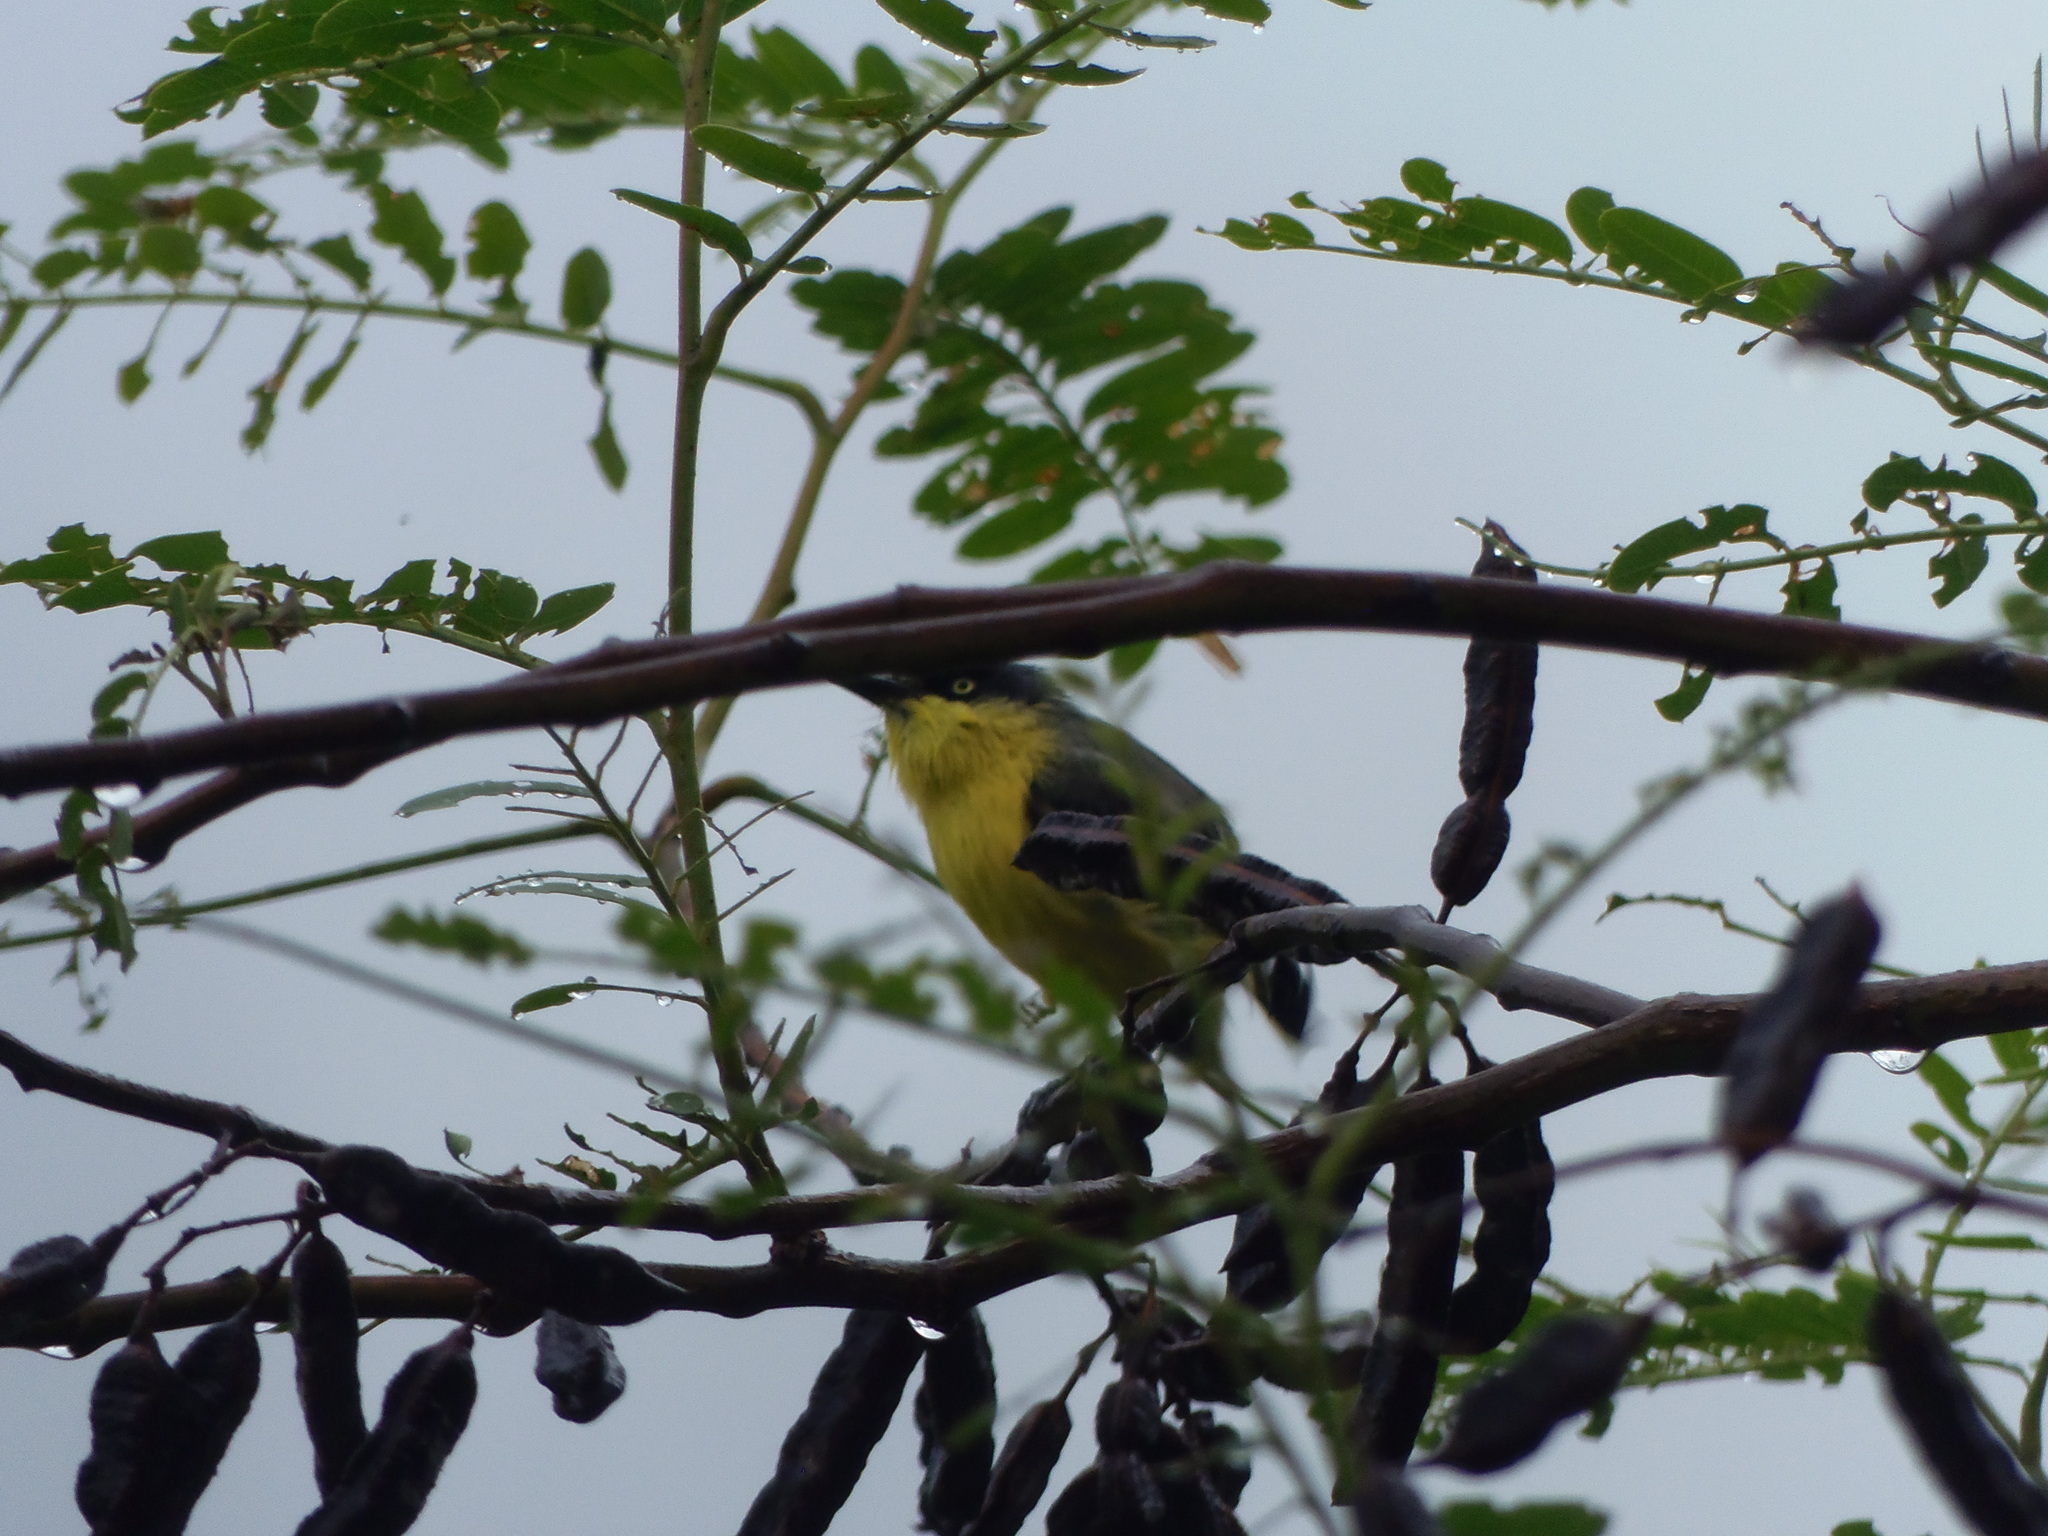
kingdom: Animalia
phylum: Chordata
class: Aves
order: Passeriformes
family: Tyrannidae
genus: Todirostrum
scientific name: Todirostrum cinereum
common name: Common tody-flycatcher
